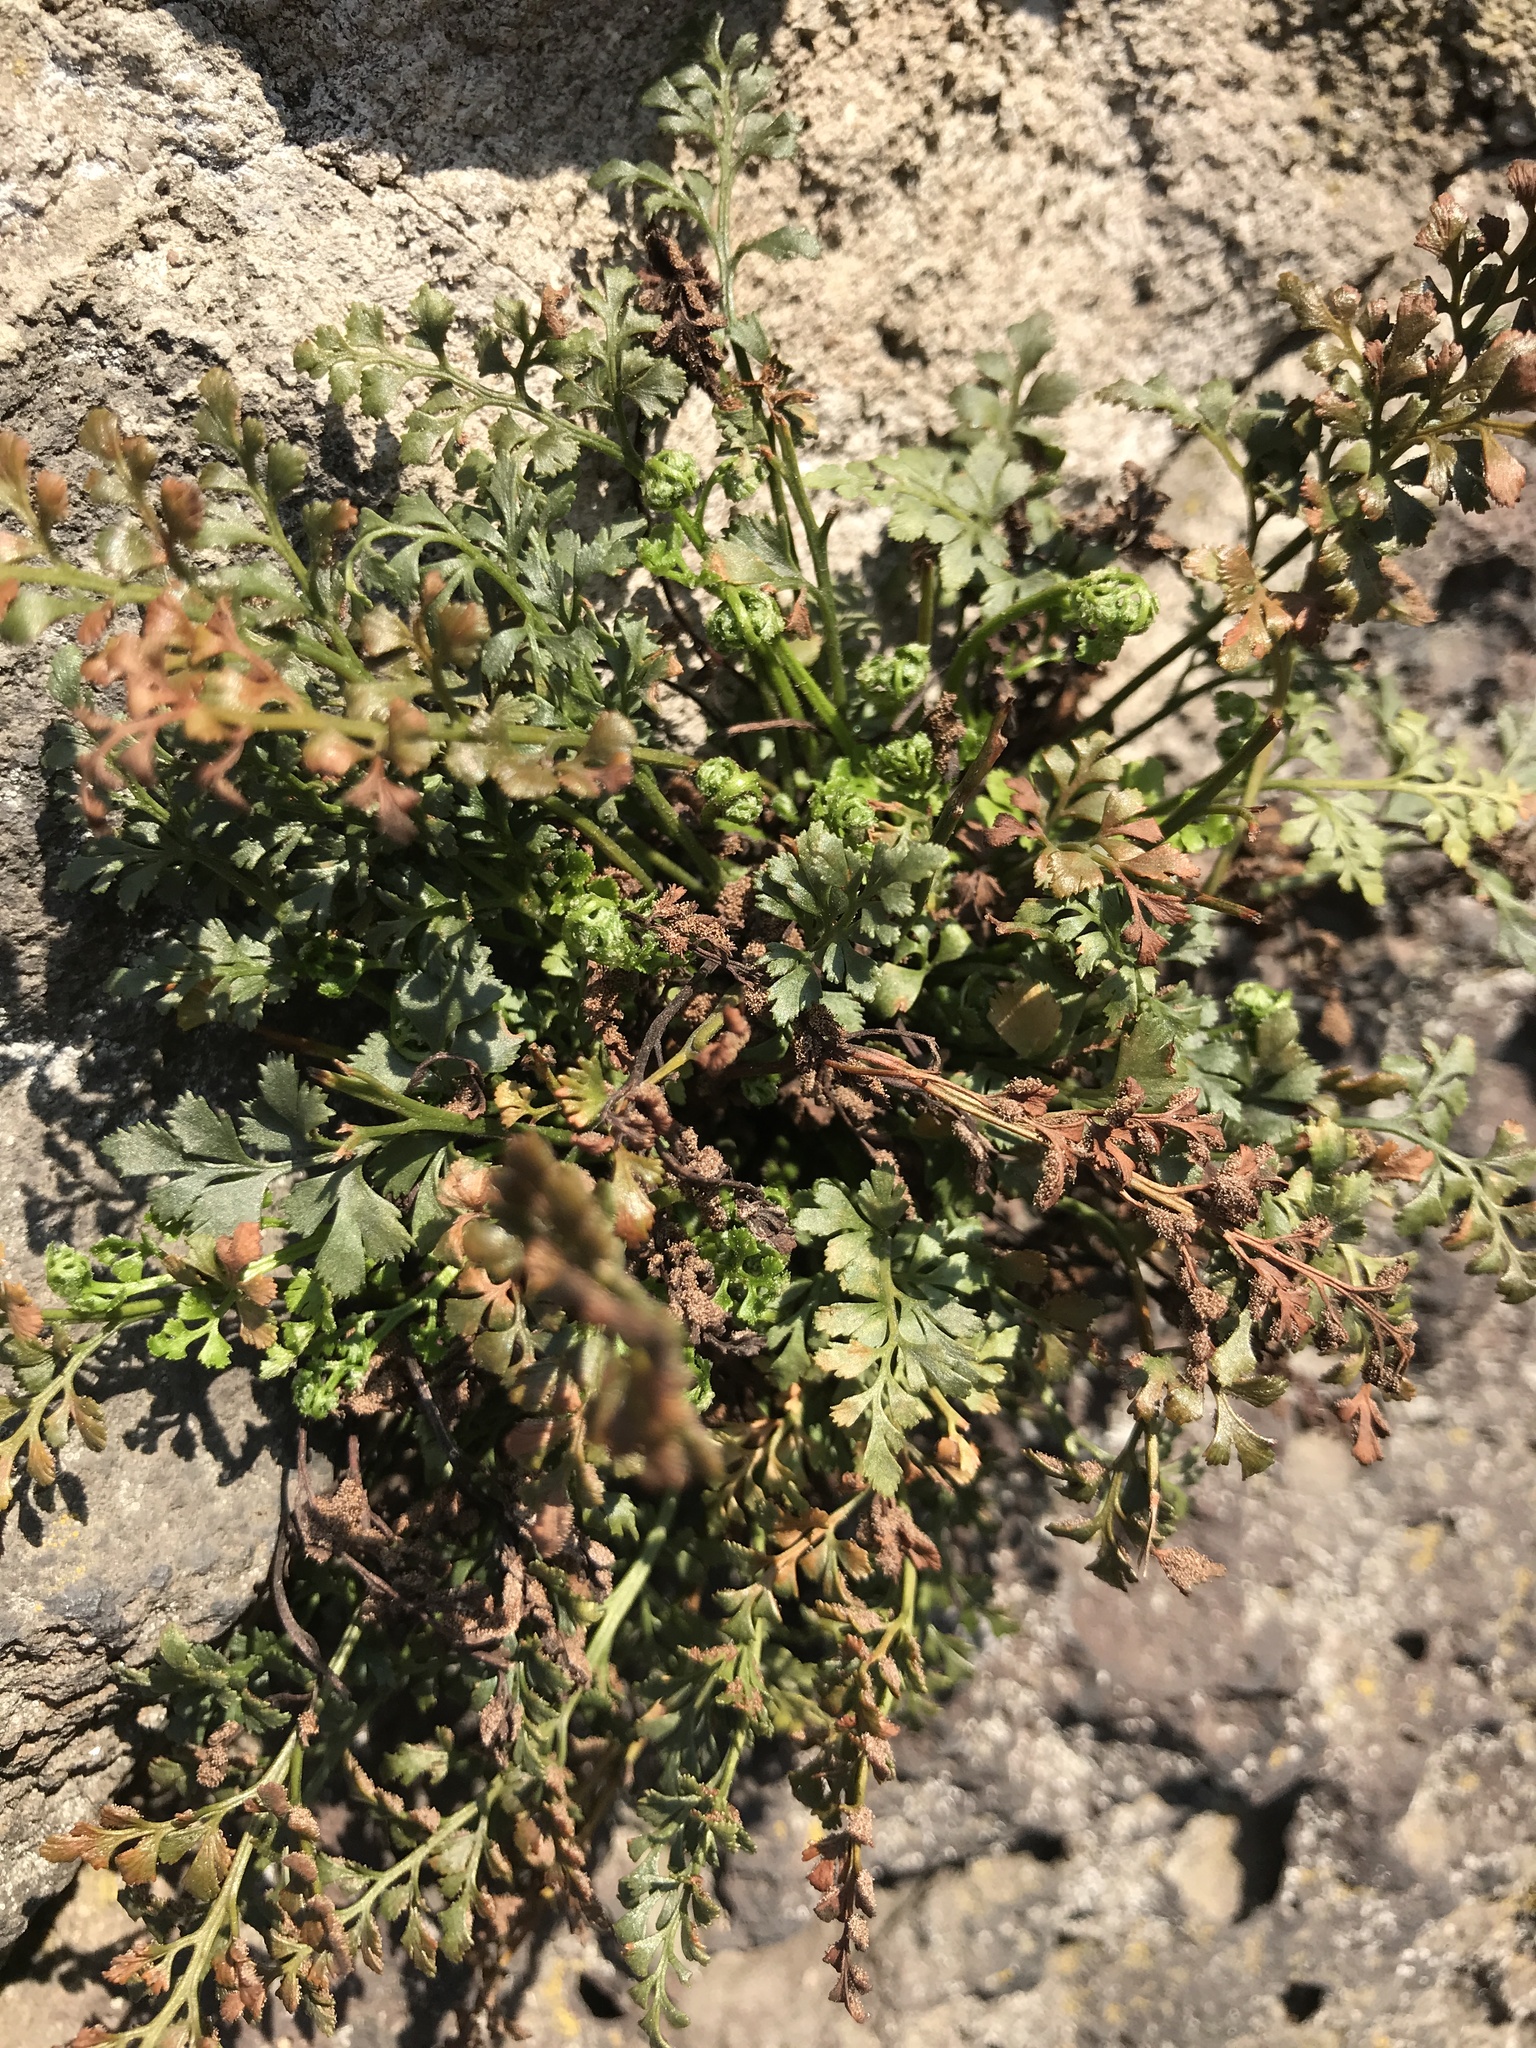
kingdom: Plantae
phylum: Tracheophyta
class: Polypodiopsida
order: Polypodiales
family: Aspleniaceae
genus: Asplenium
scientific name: Asplenium ruta-muraria
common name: Wall-rue
